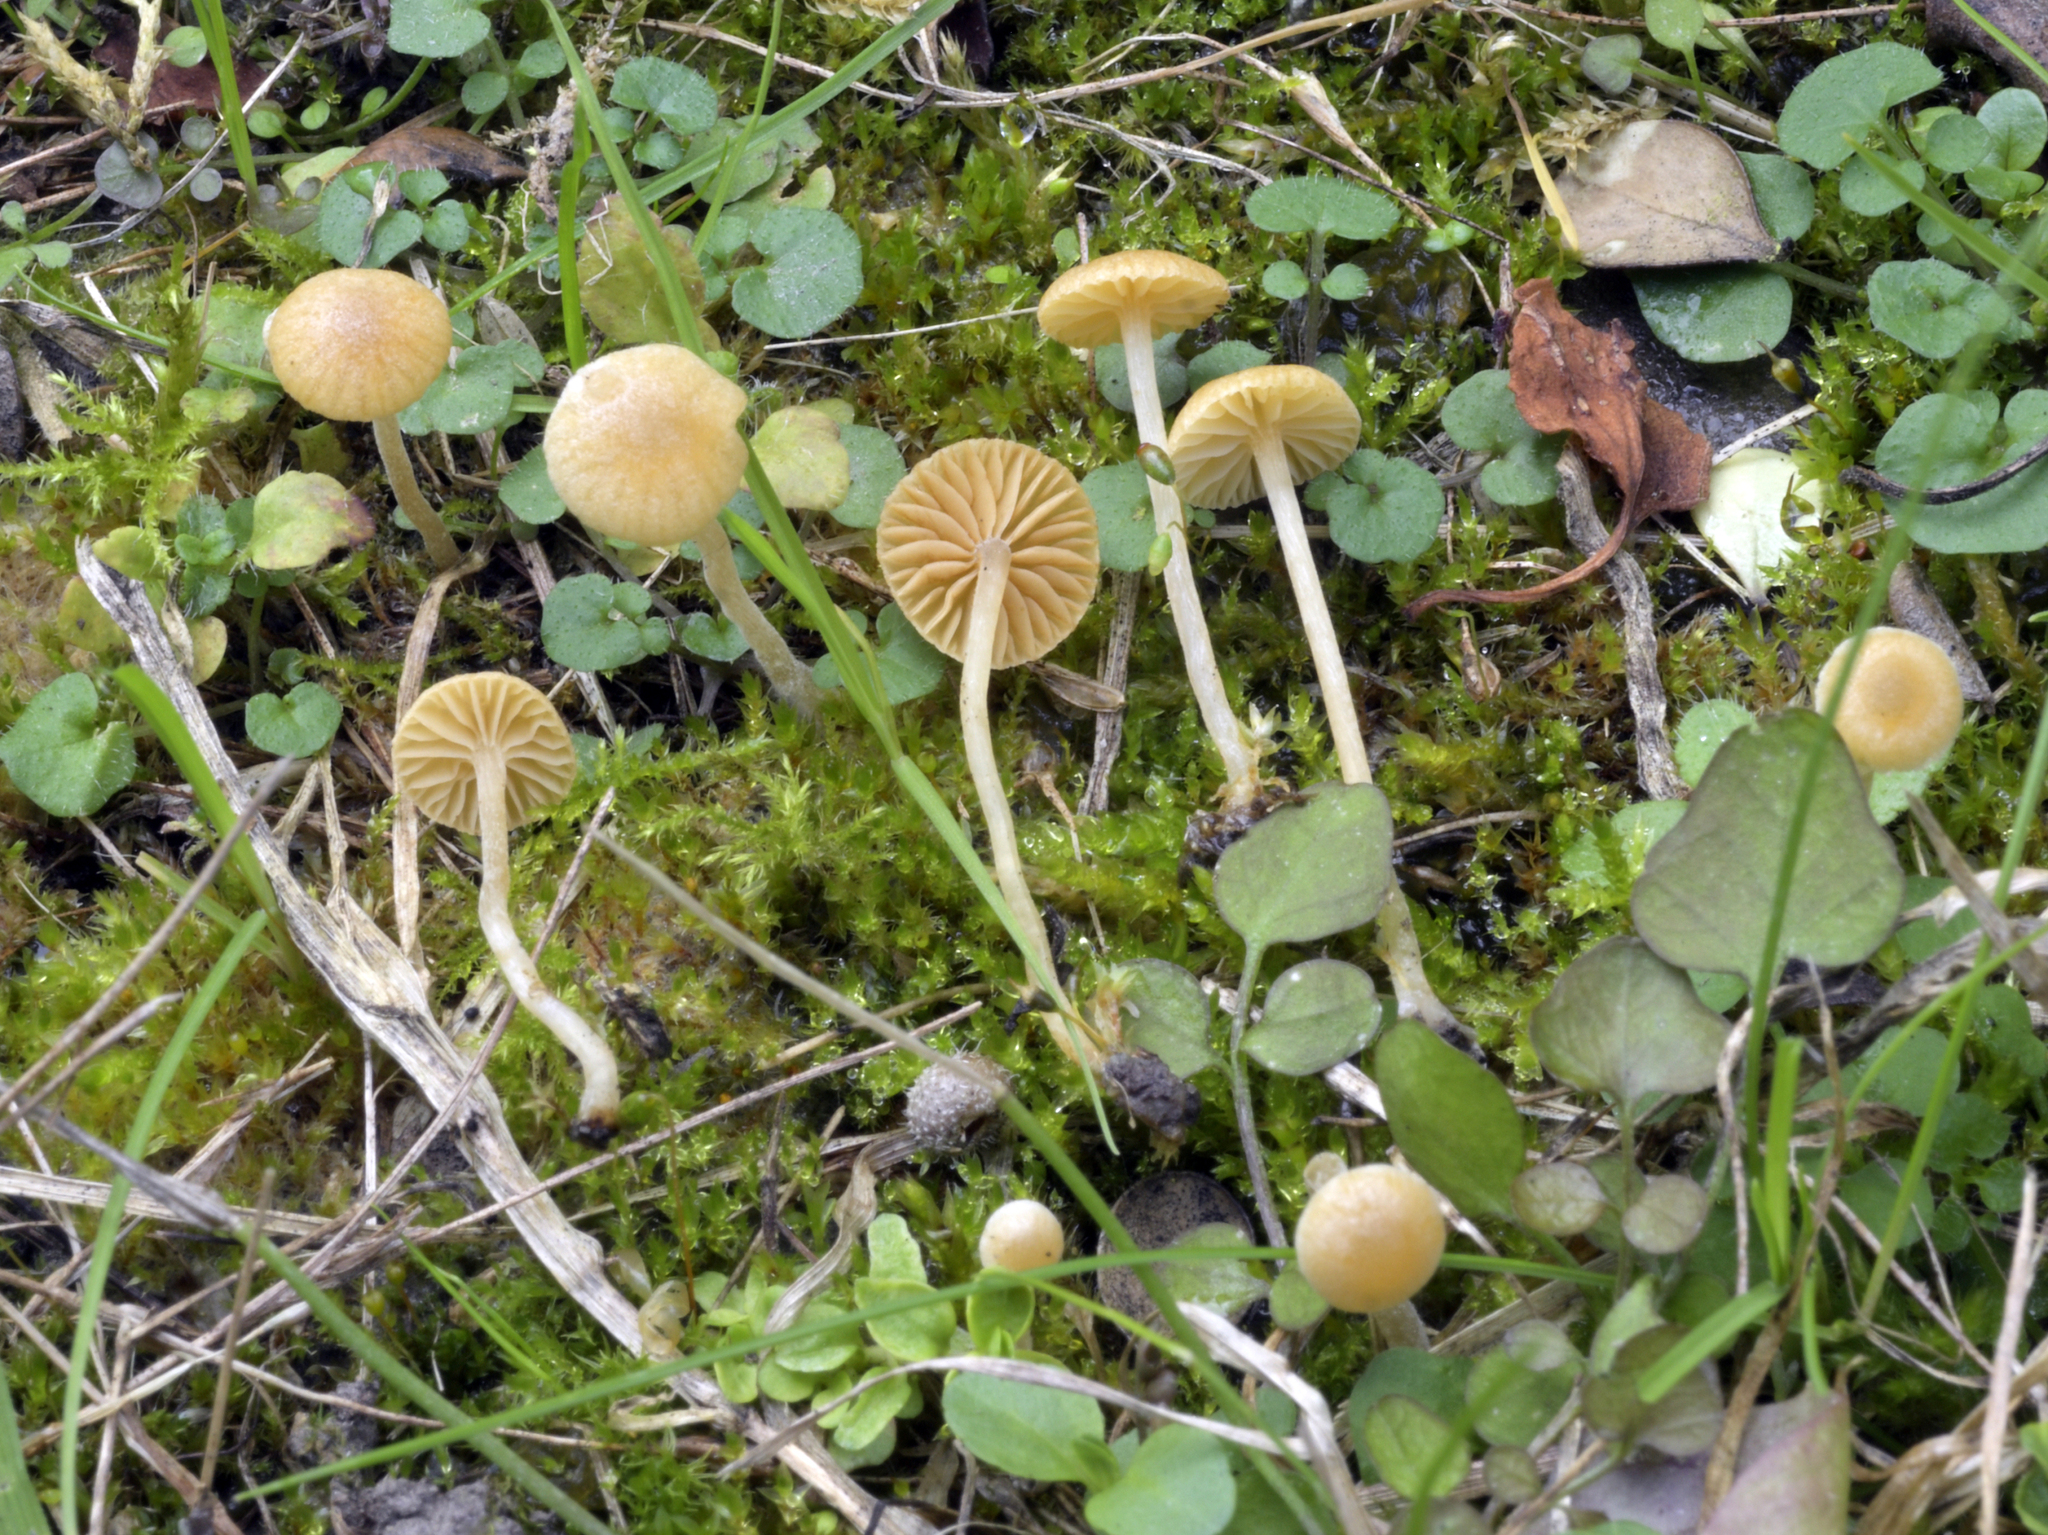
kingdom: Fungi
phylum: Basidiomycota
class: Agaricomycetes
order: Agaricales
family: Hymenogastraceae
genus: Galerina
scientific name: Galerina graminea
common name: Turf bell
